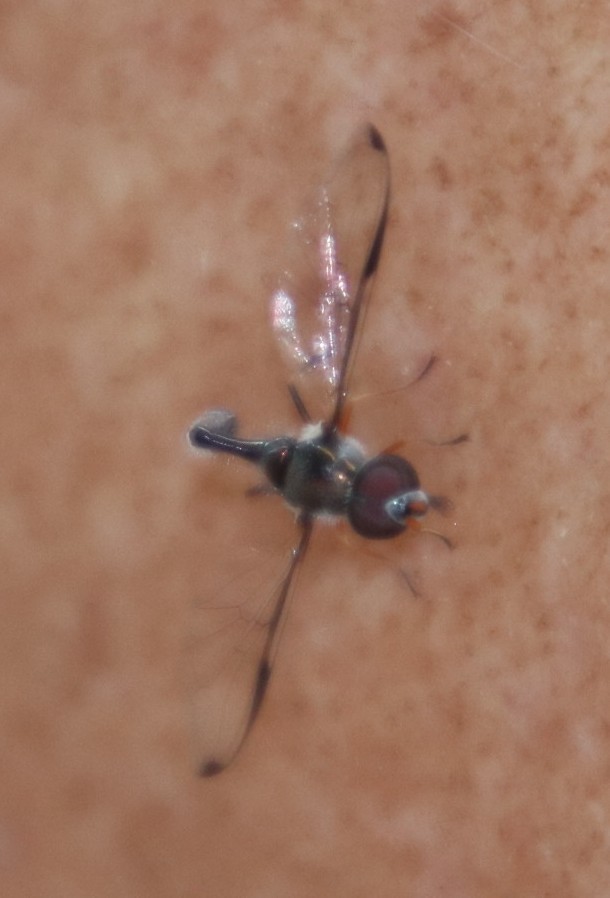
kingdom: Animalia
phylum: Arthropoda
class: Insecta
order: Diptera
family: Syrphidae
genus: Allobaccha
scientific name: Allobaccha sapphirina
